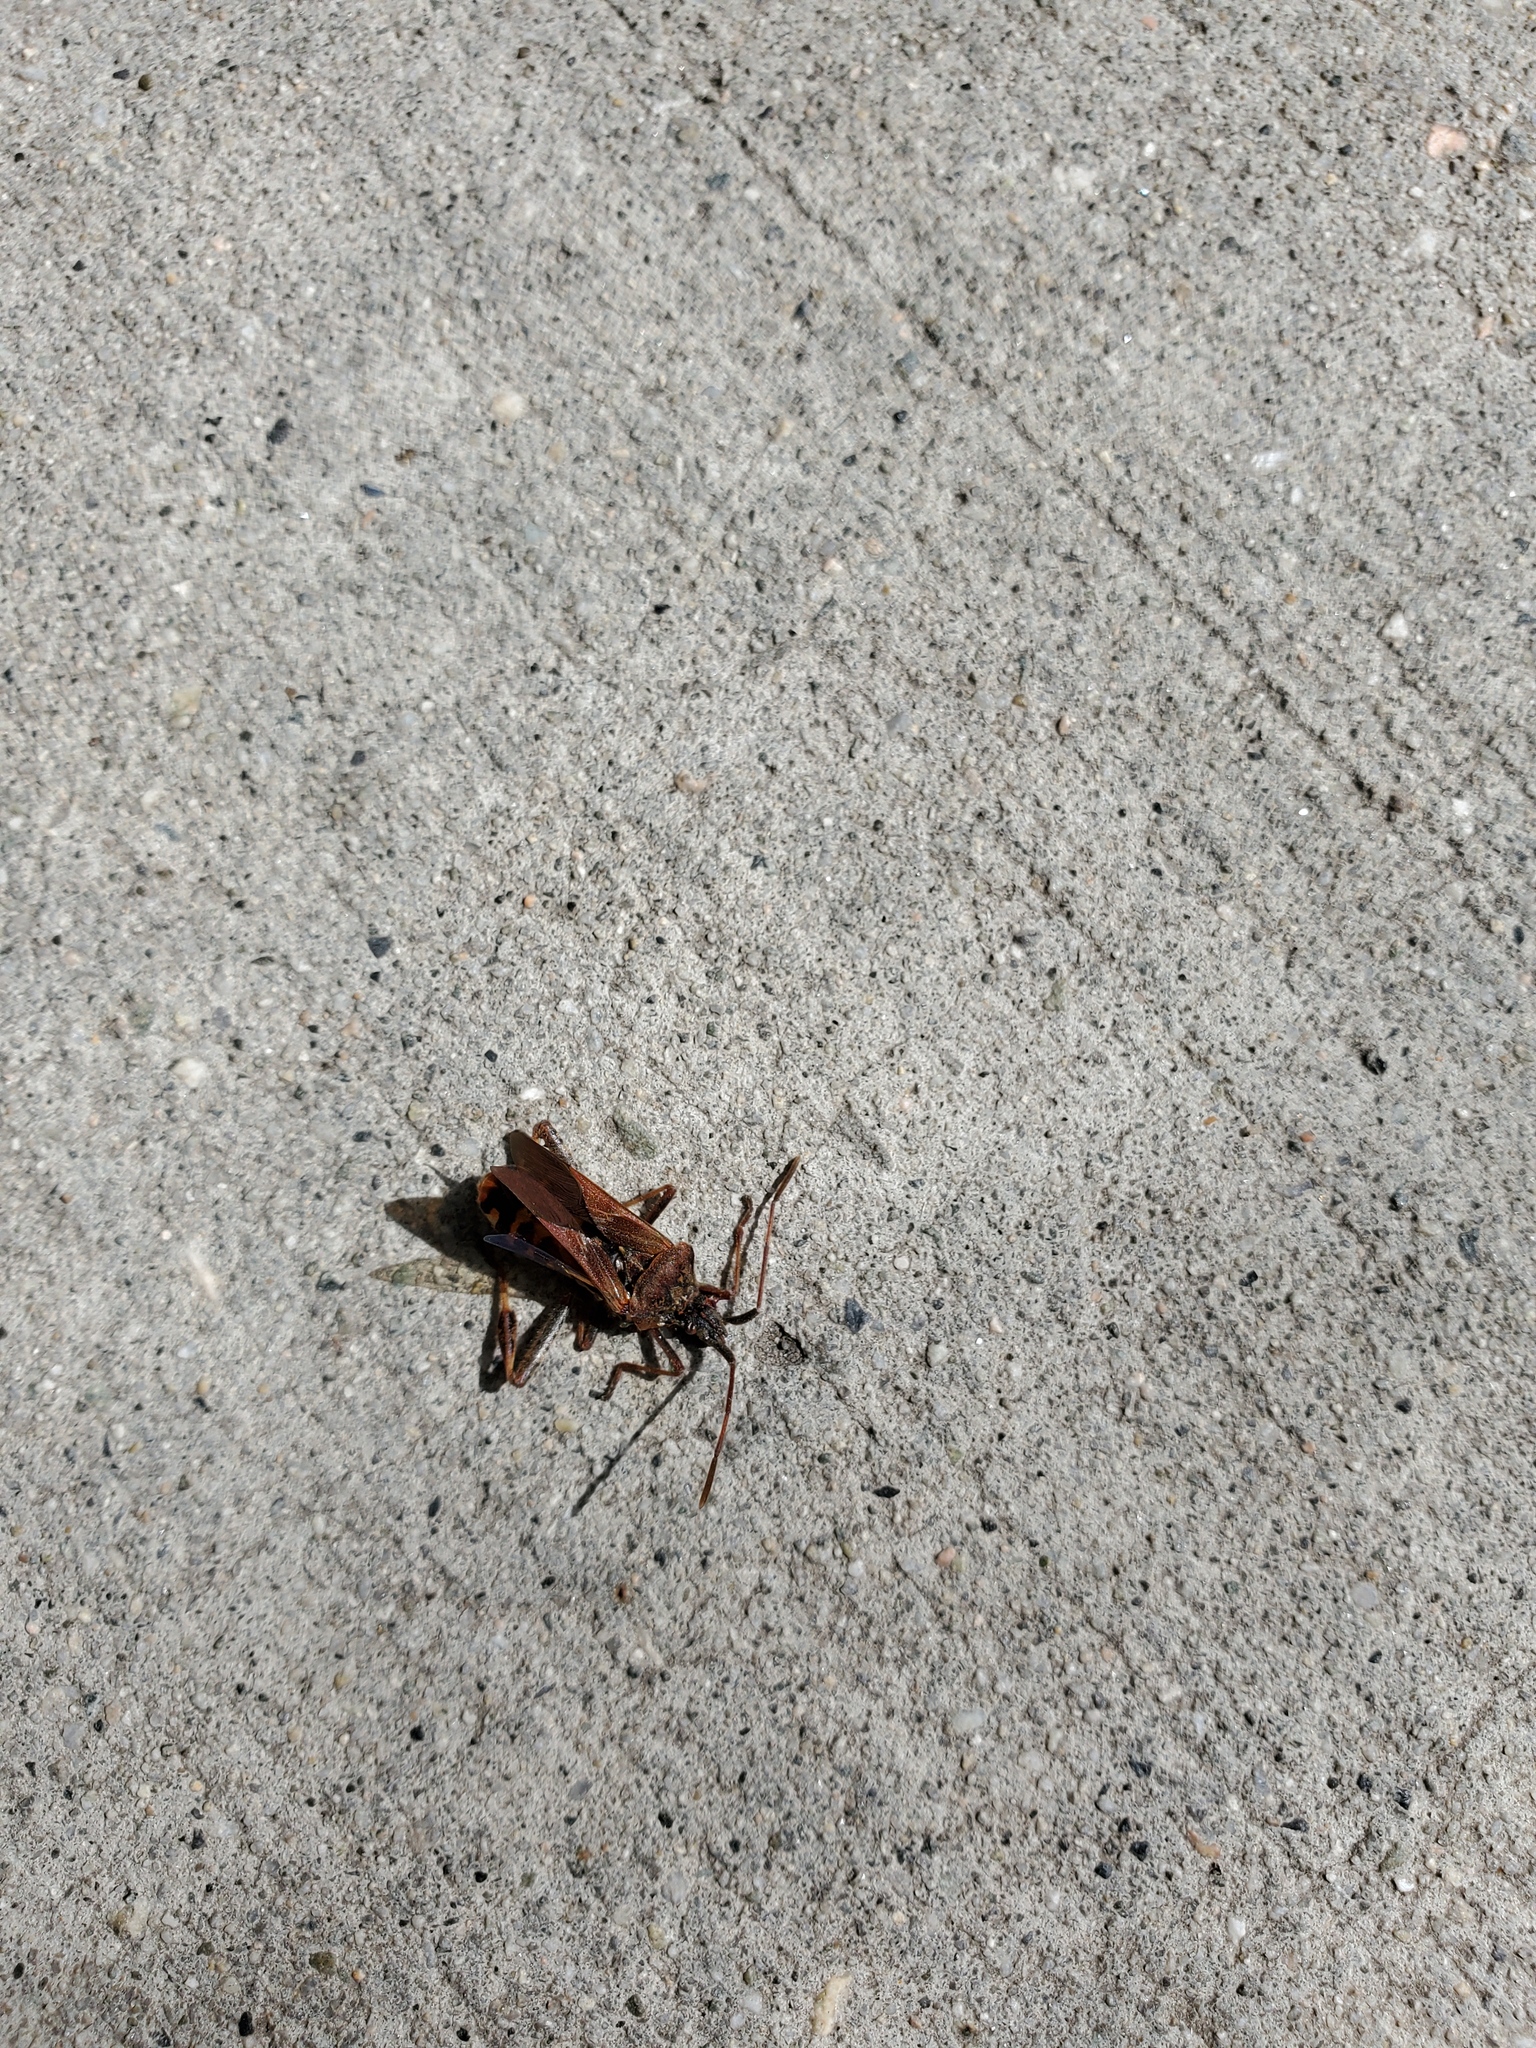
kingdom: Animalia
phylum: Arthropoda
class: Insecta
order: Hemiptera
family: Coreidae
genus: Leptoglossus
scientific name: Leptoglossus occidentalis
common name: Western conifer-seed bug
